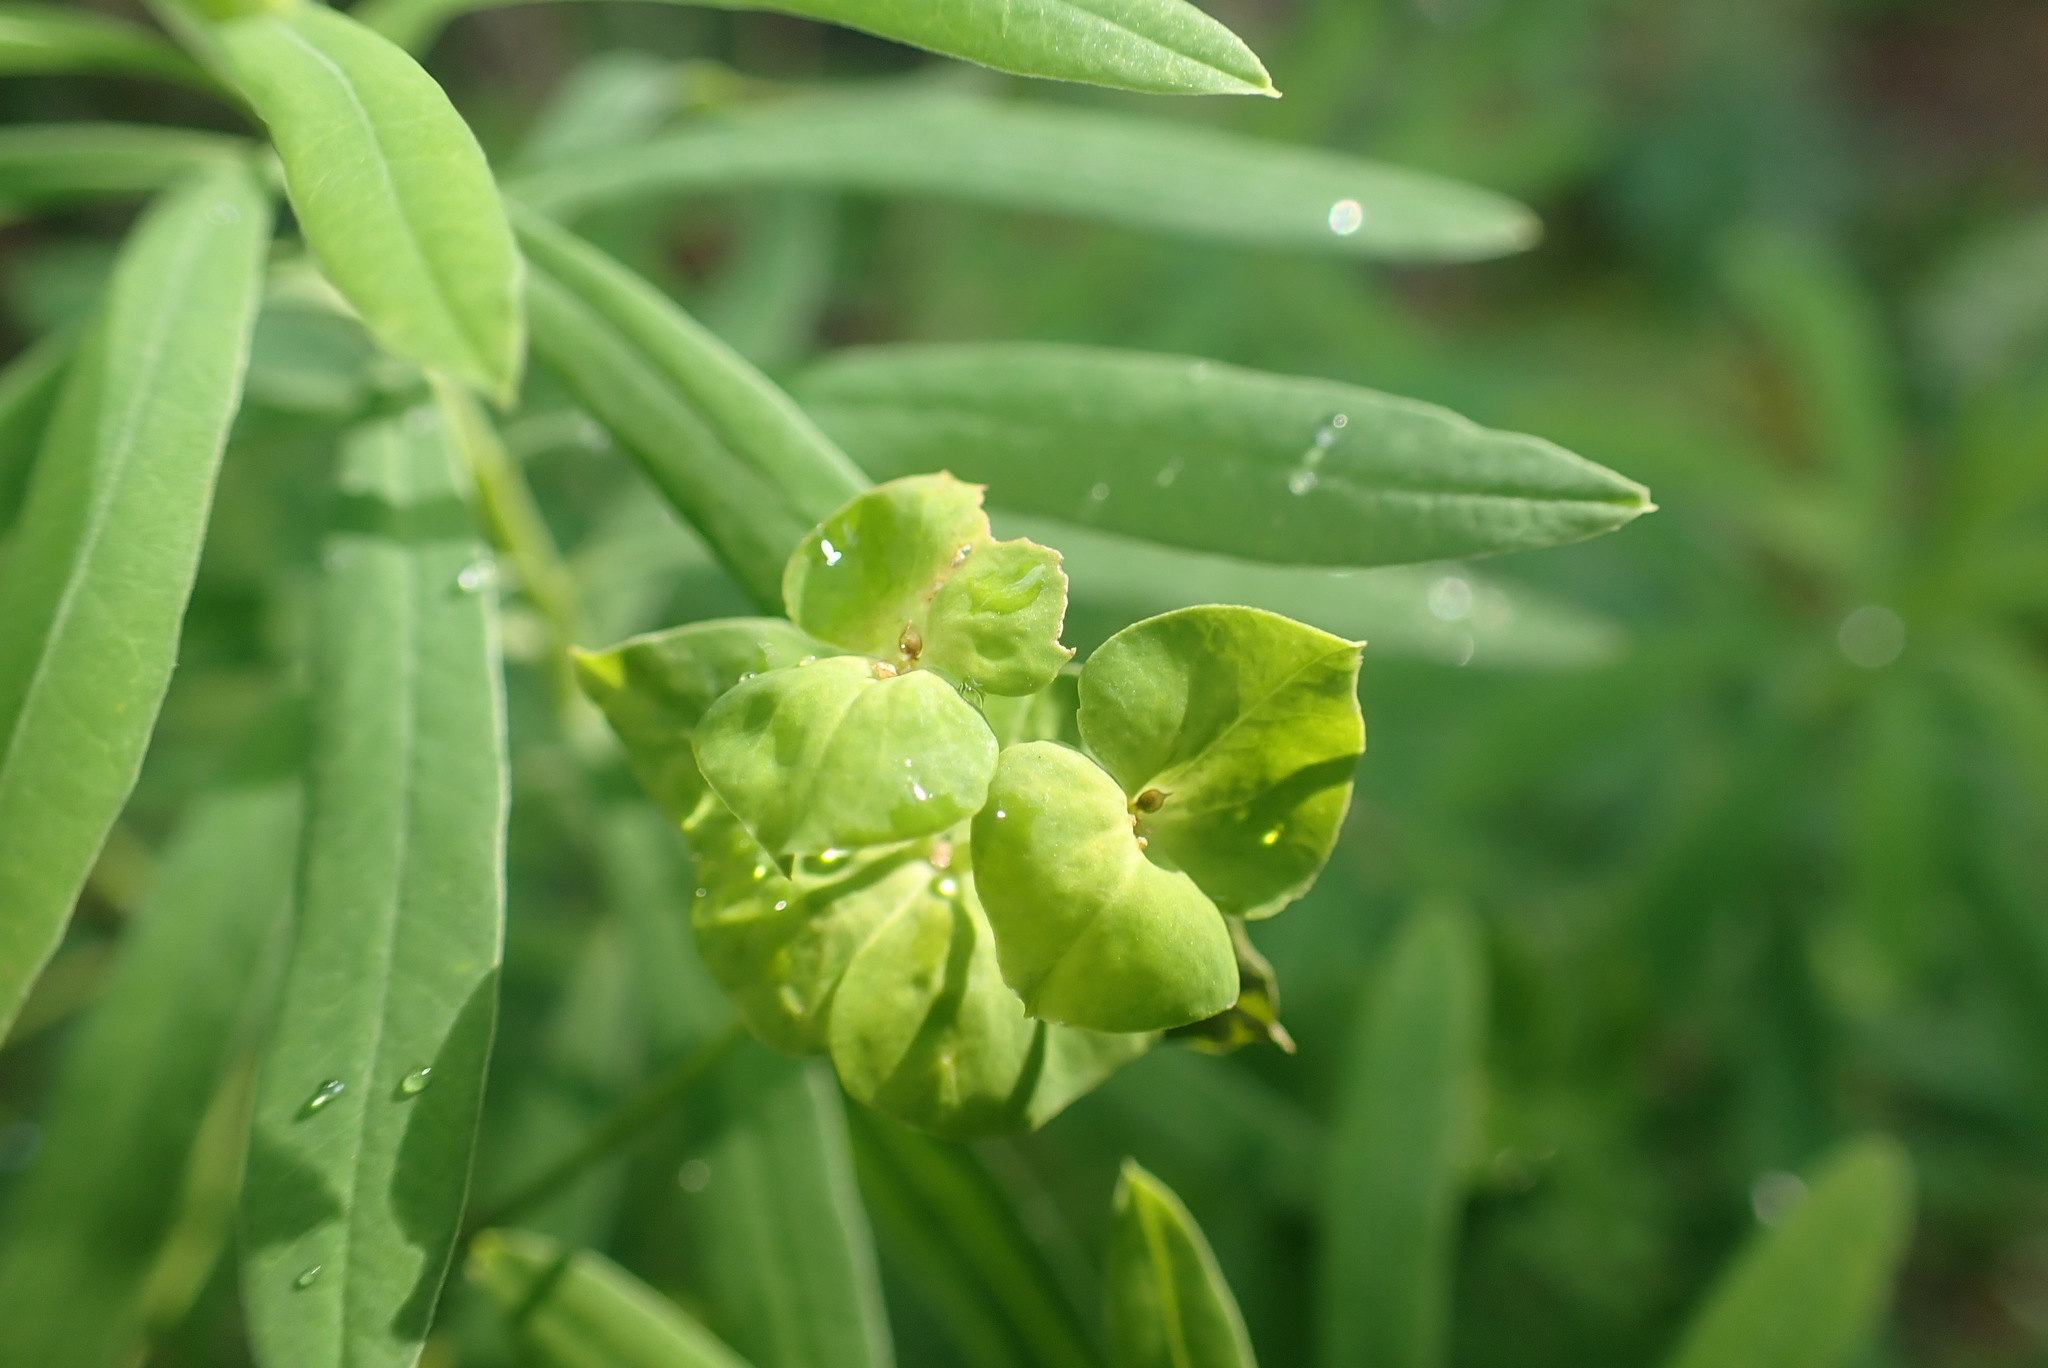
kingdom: Plantae
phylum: Tracheophyta
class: Magnoliopsida
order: Malpighiales
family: Euphorbiaceae
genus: Euphorbia
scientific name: Euphorbia esula
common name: Leafy spurge
